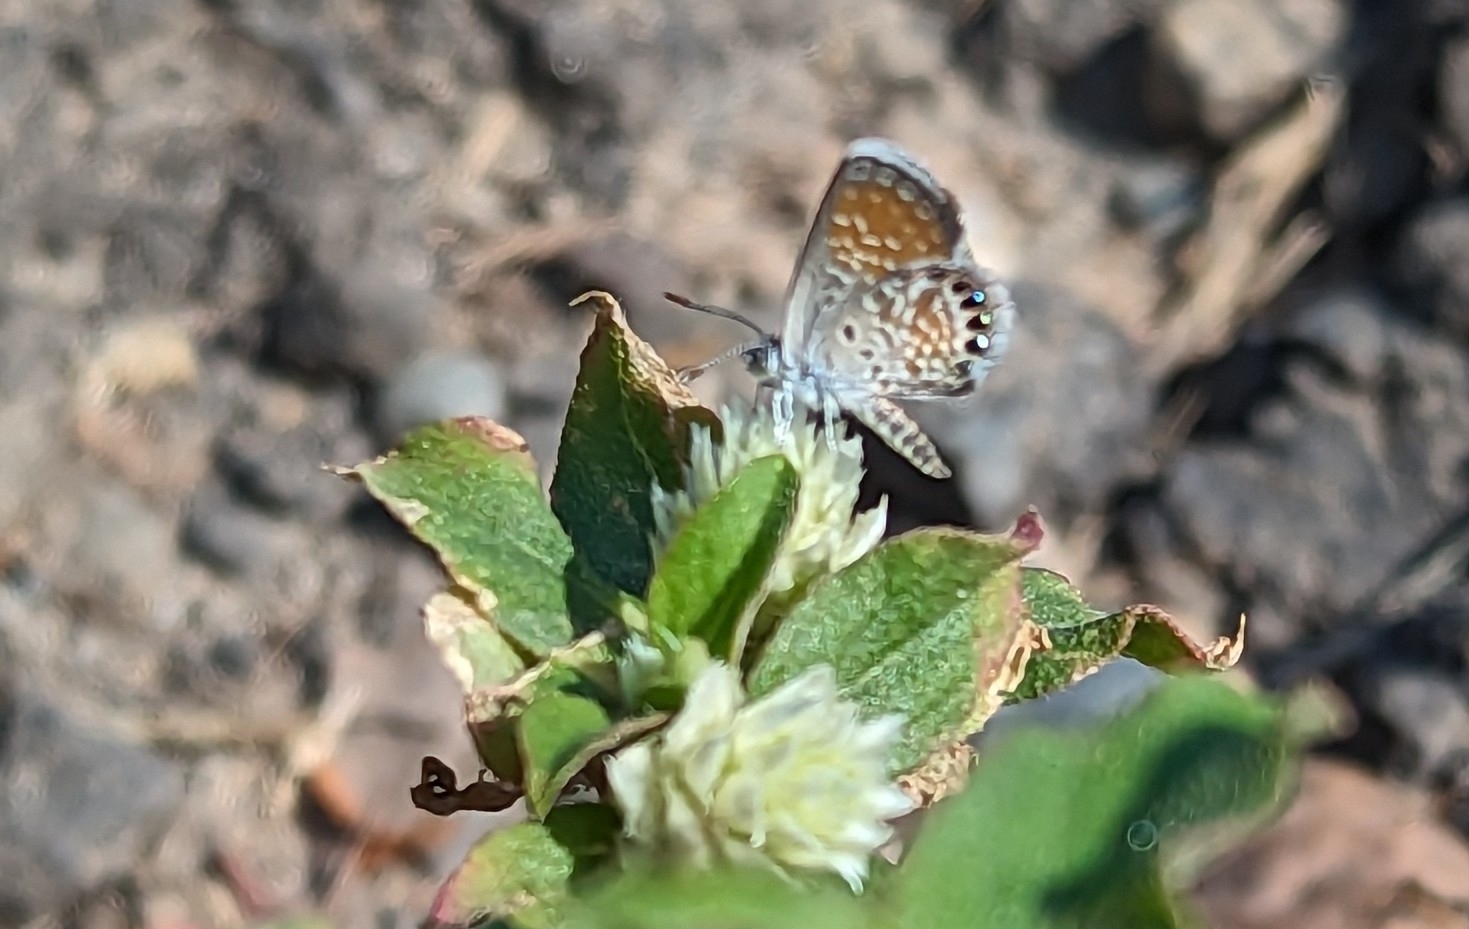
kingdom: Animalia
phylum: Arthropoda
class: Insecta
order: Lepidoptera
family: Lycaenidae
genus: Brephidium
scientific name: Brephidium exilis
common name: Pygmy blue
